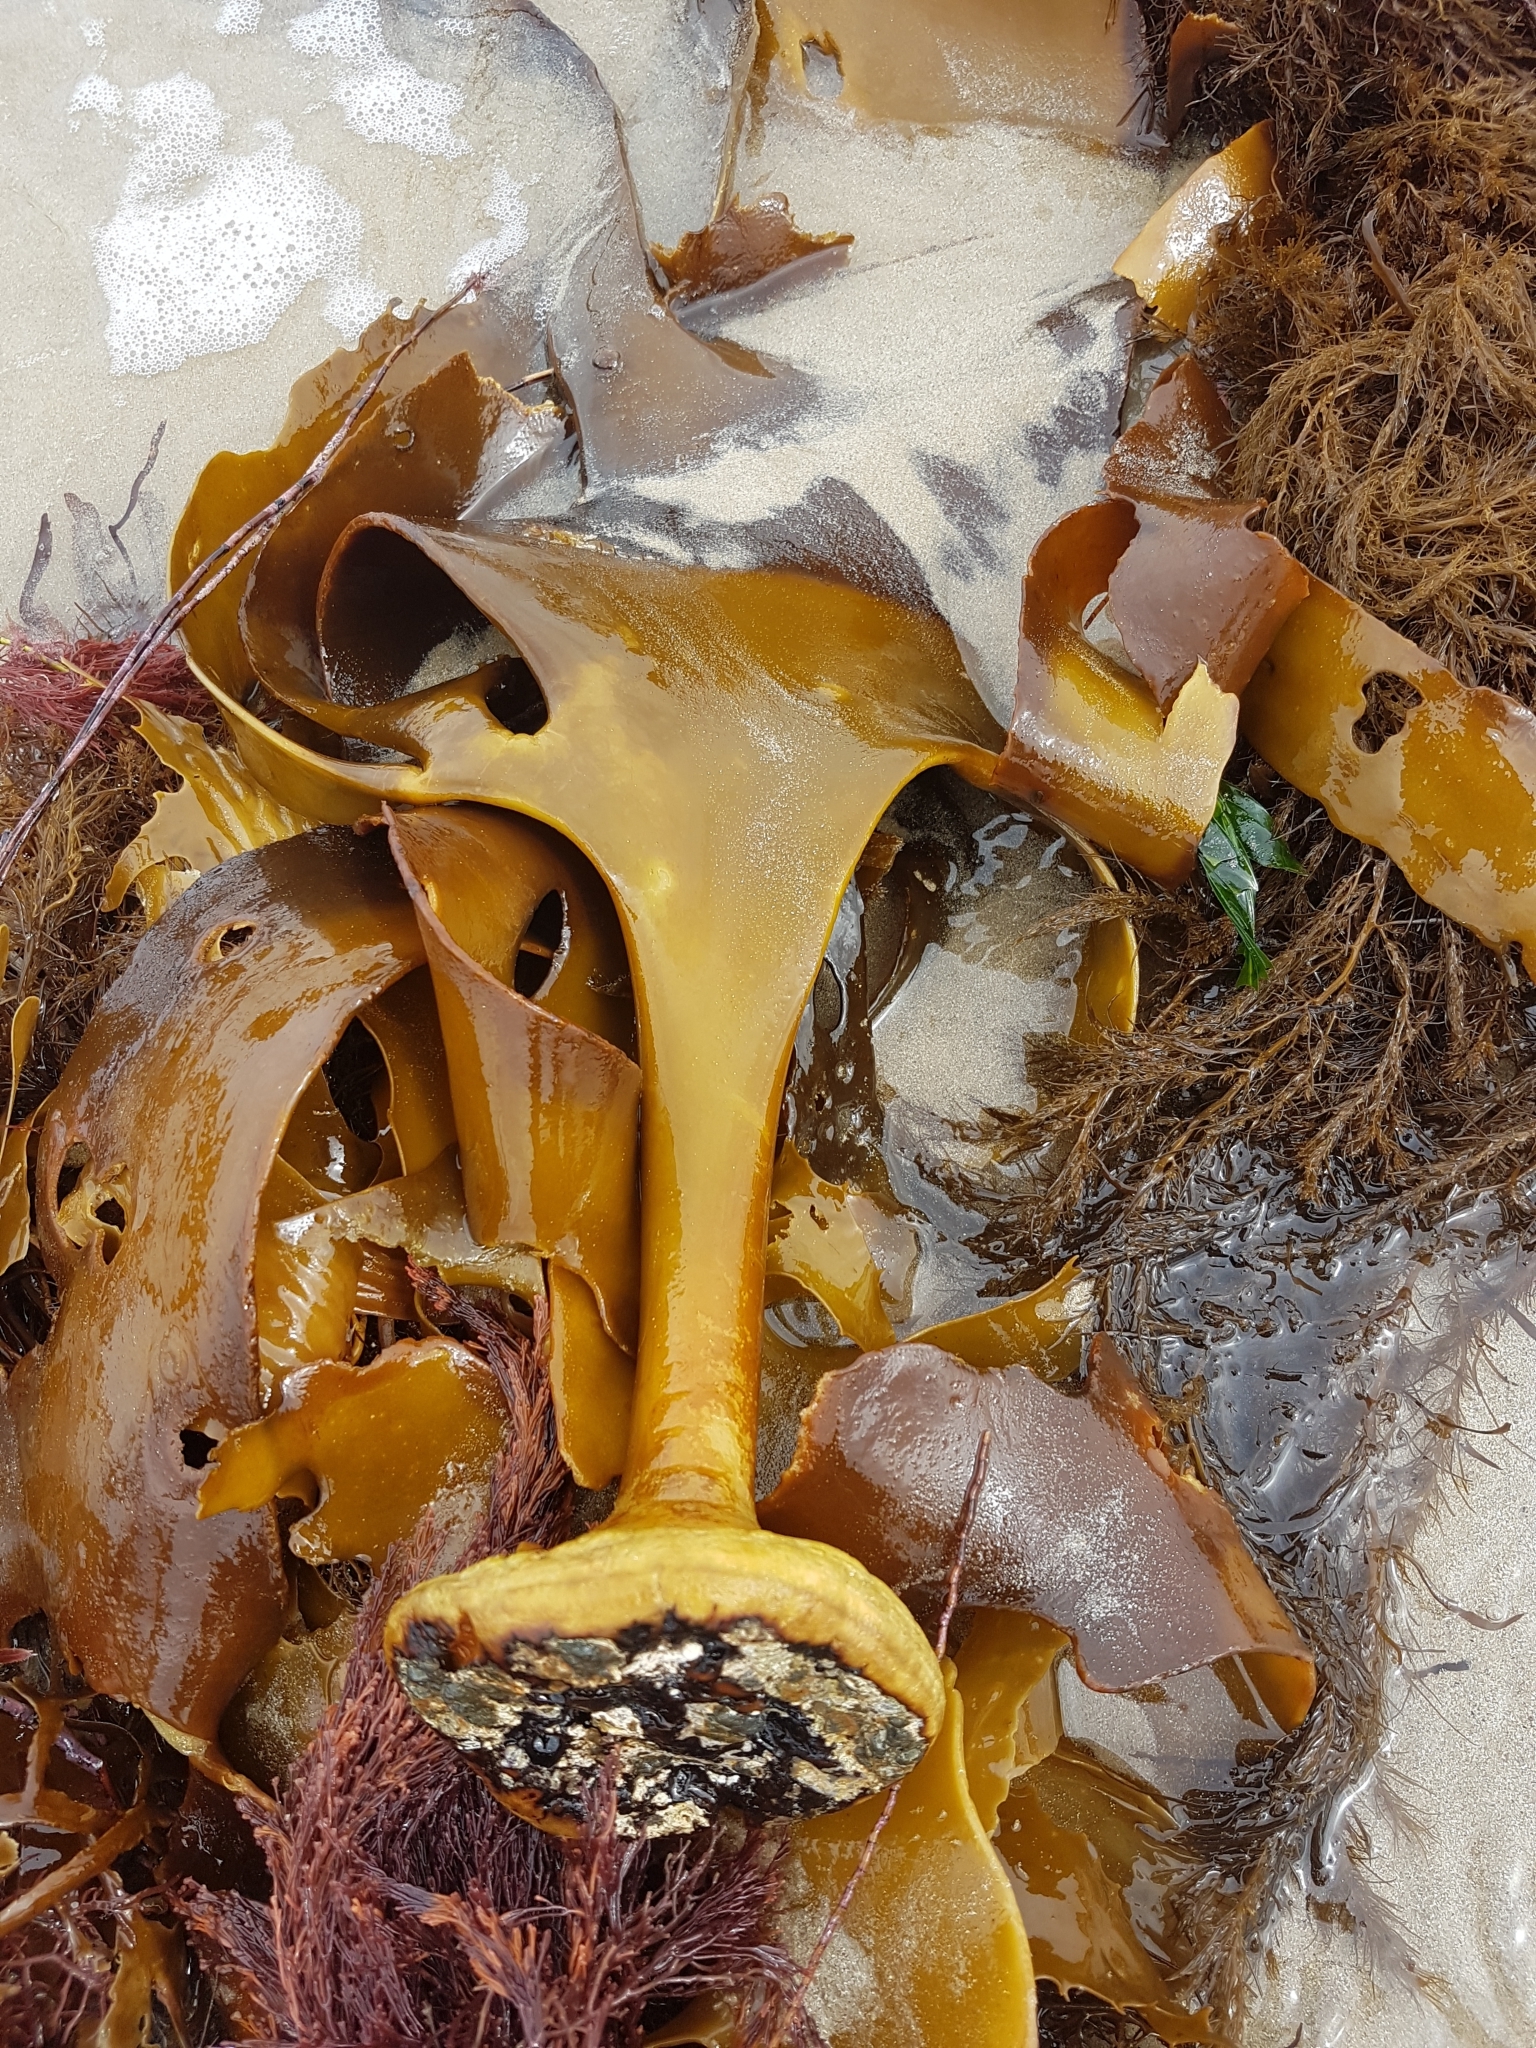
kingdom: Chromista
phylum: Ochrophyta
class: Phaeophyceae
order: Fucales
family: Durvillaeaceae
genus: Durvillaea
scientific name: Durvillaea
